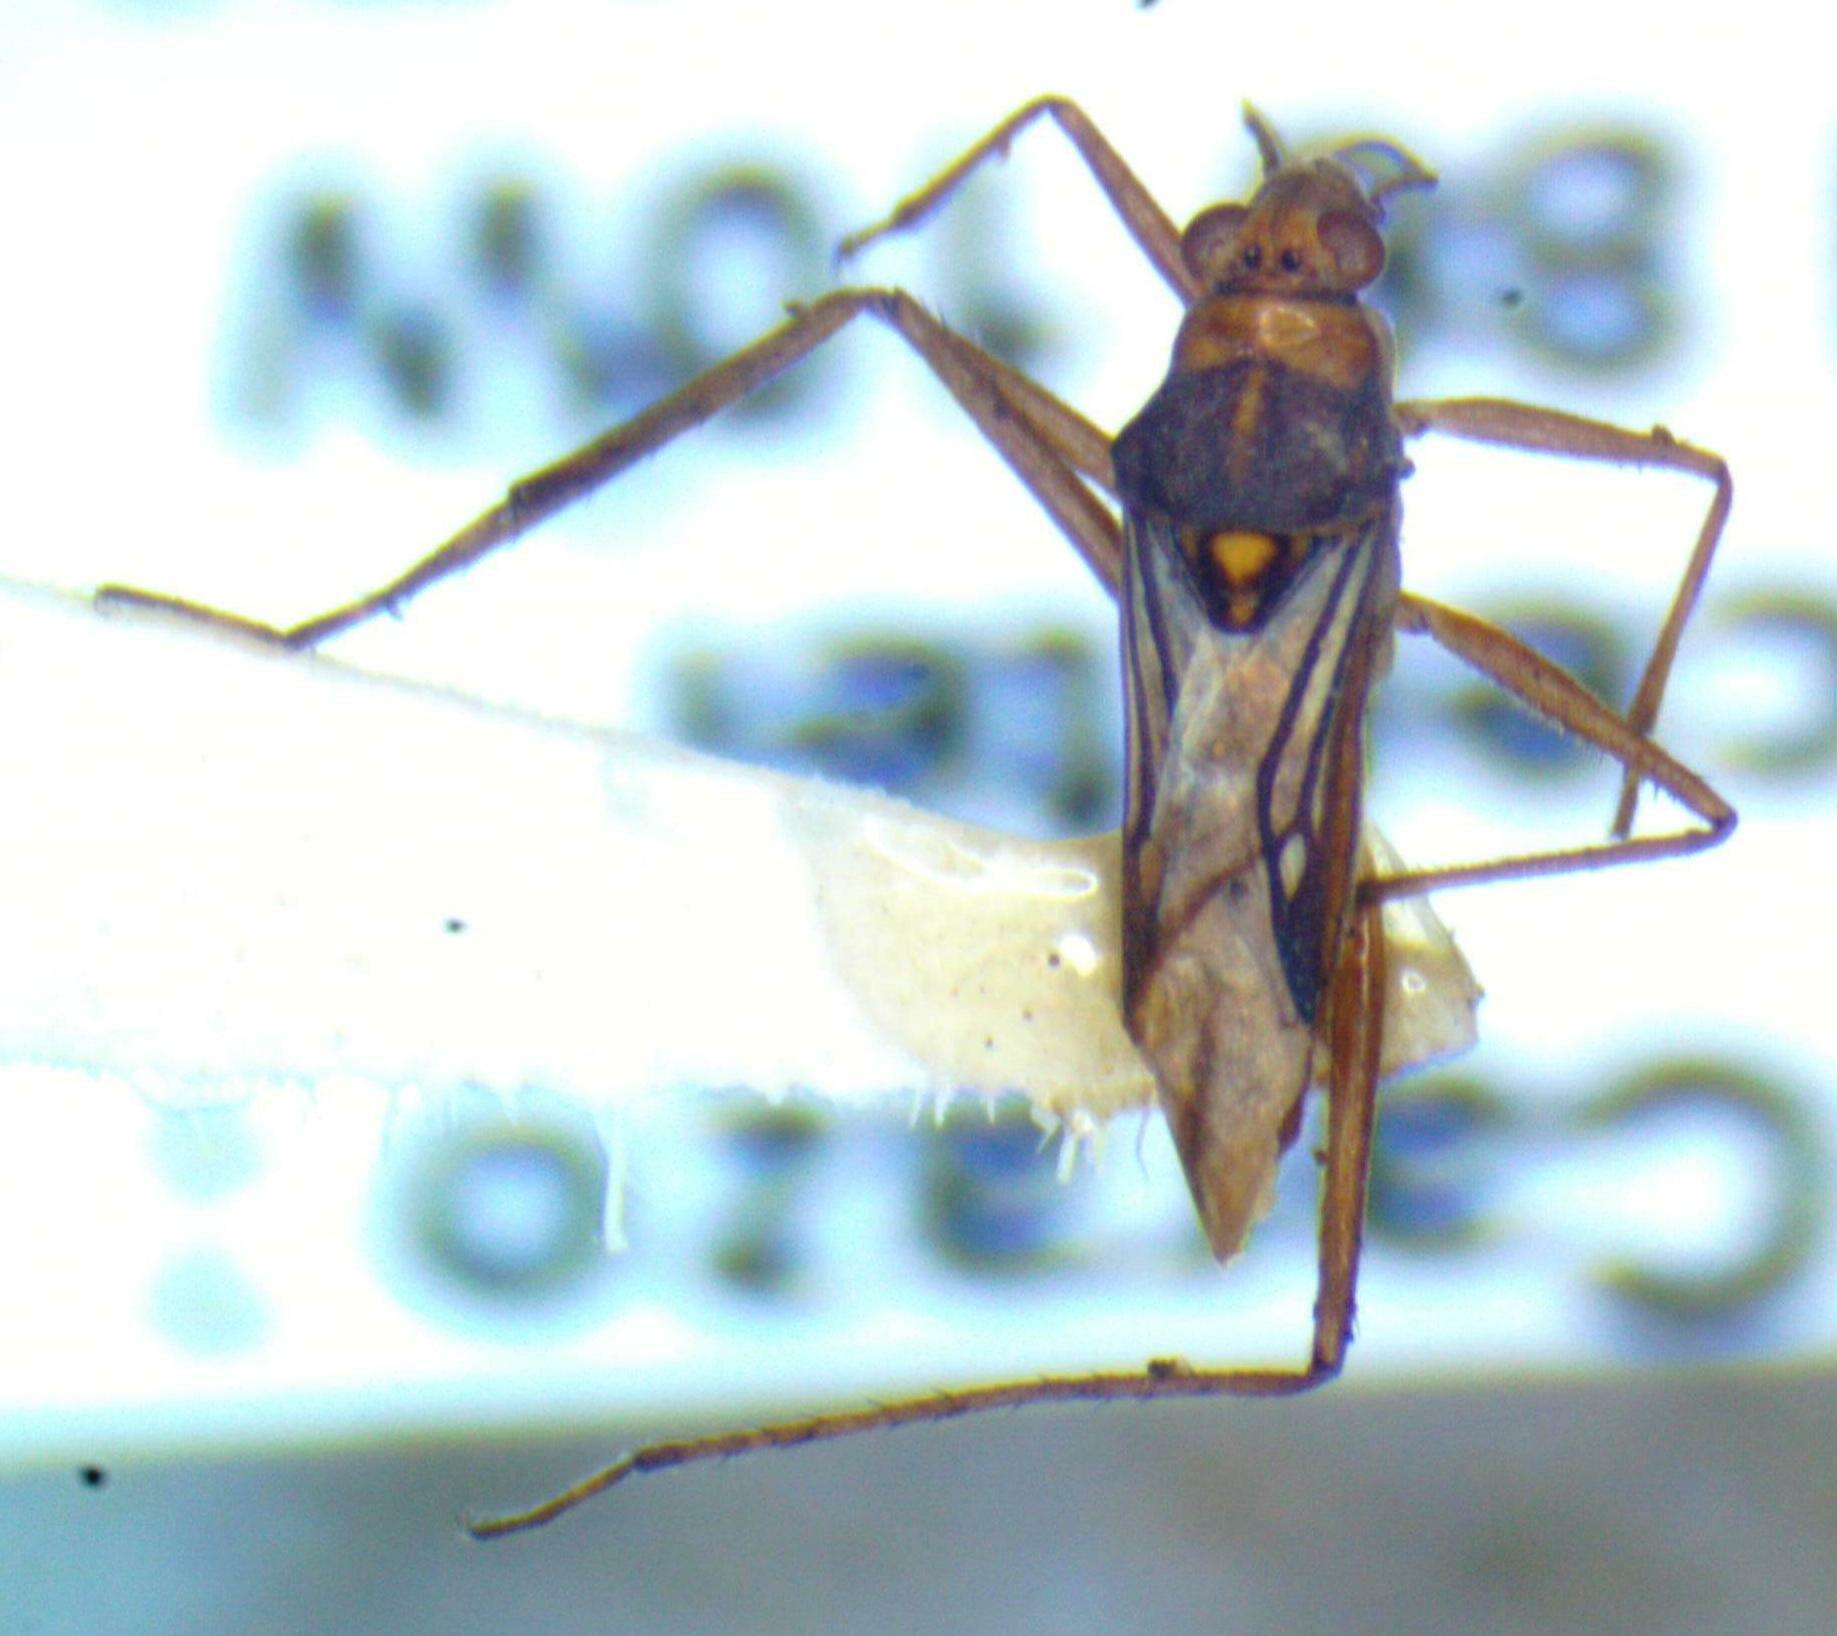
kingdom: Animalia
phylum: Arthropoda
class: Insecta
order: Hemiptera
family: Mesoveliidae
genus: Mesovelia
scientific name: Mesovelia mulsanti
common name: Water treaders
